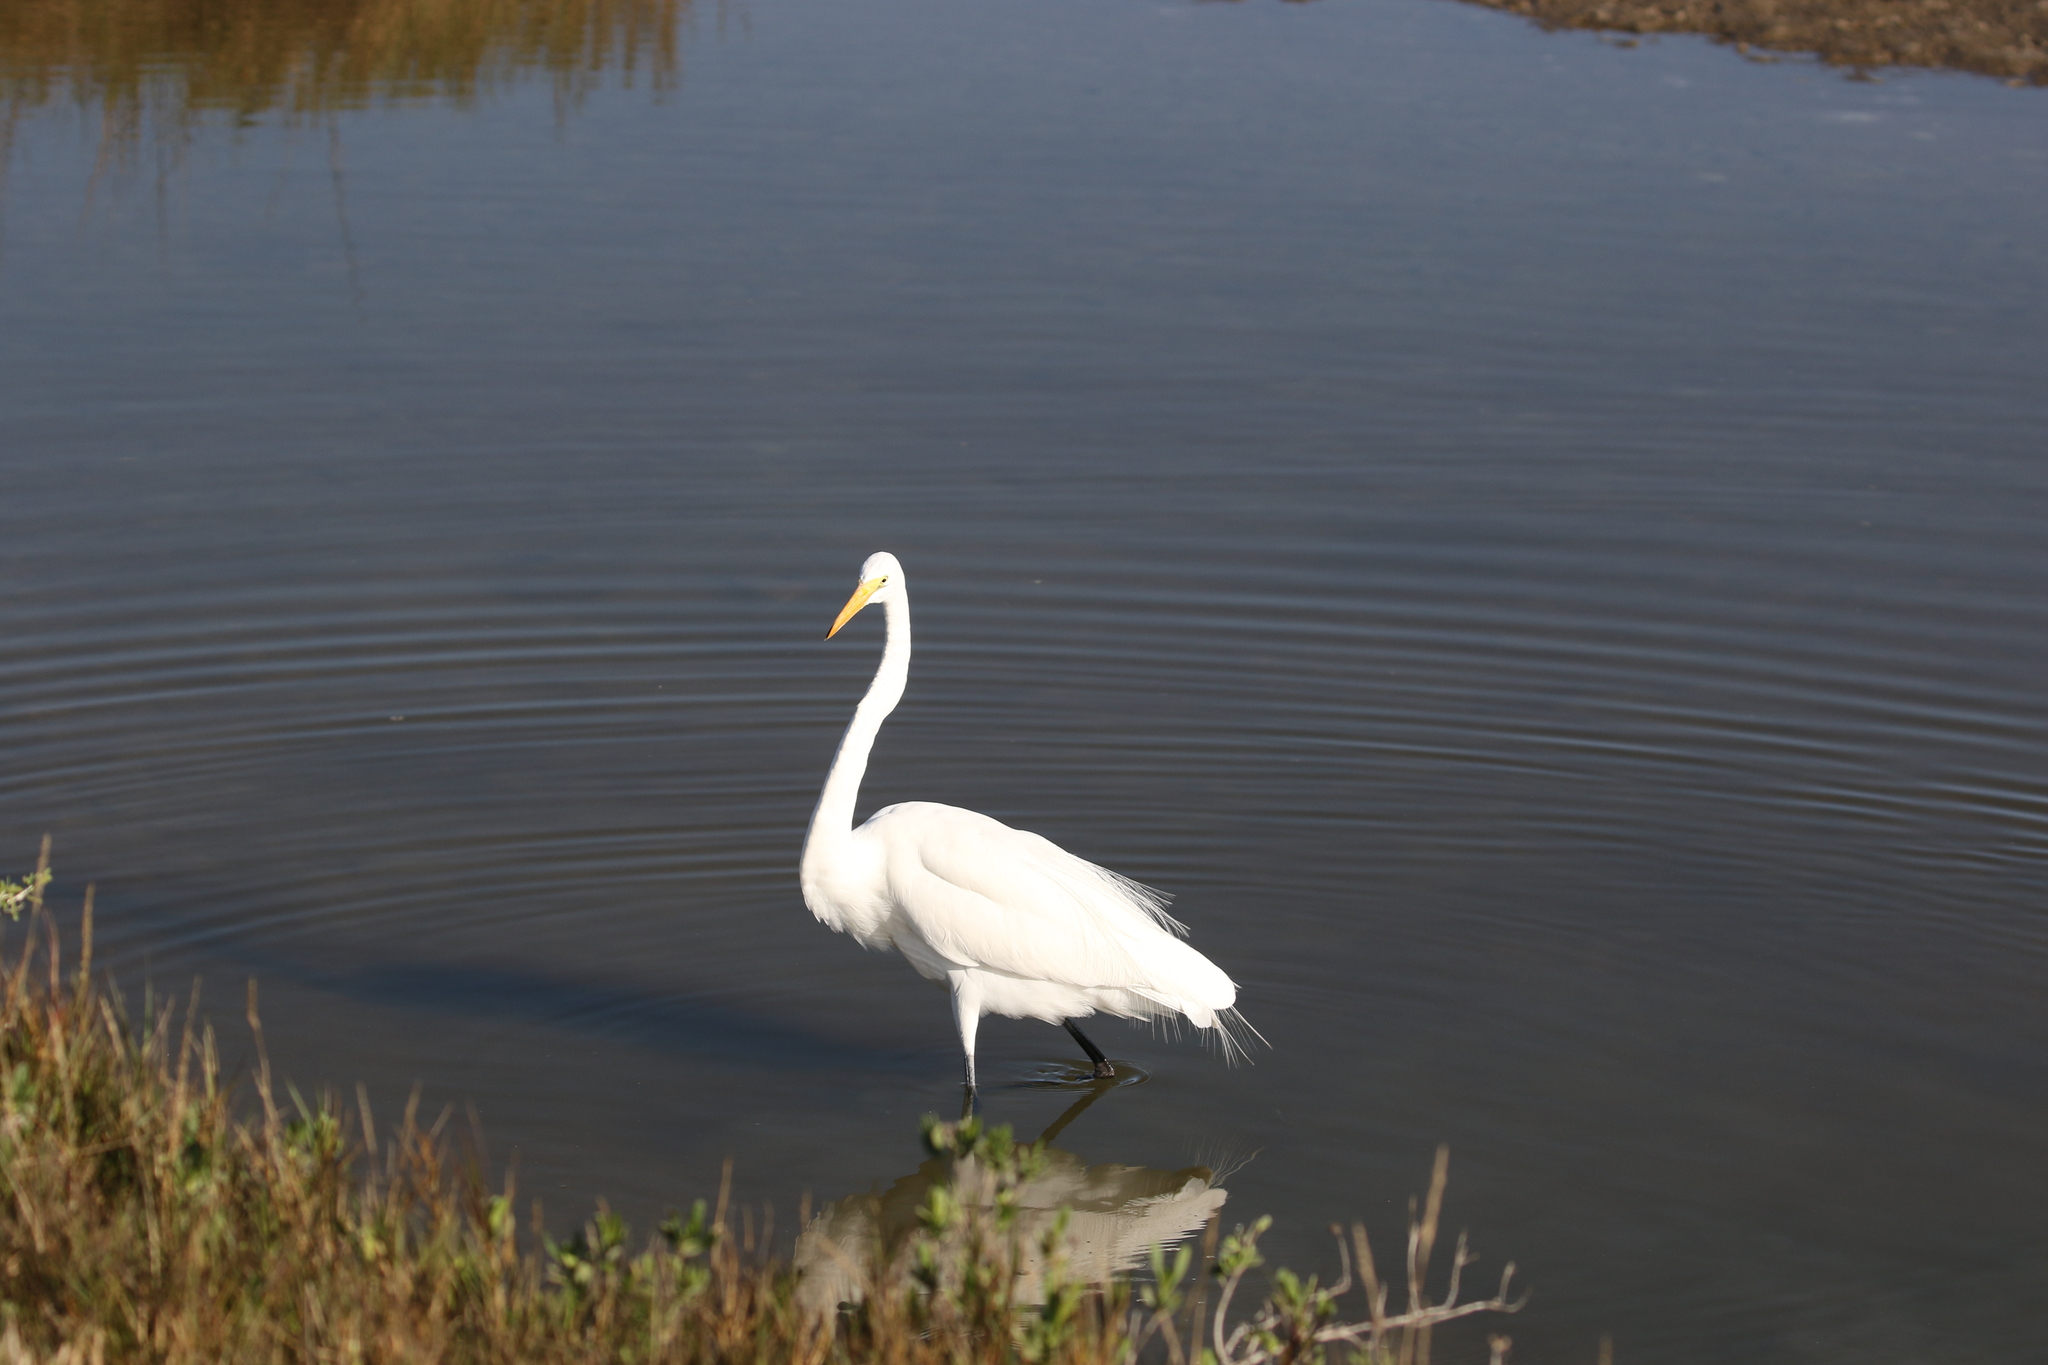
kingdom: Animalia
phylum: Chordata
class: Aves
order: Pelecaniformes
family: Ardeidae
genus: Ardea
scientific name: Ardea alba
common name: Great egret
